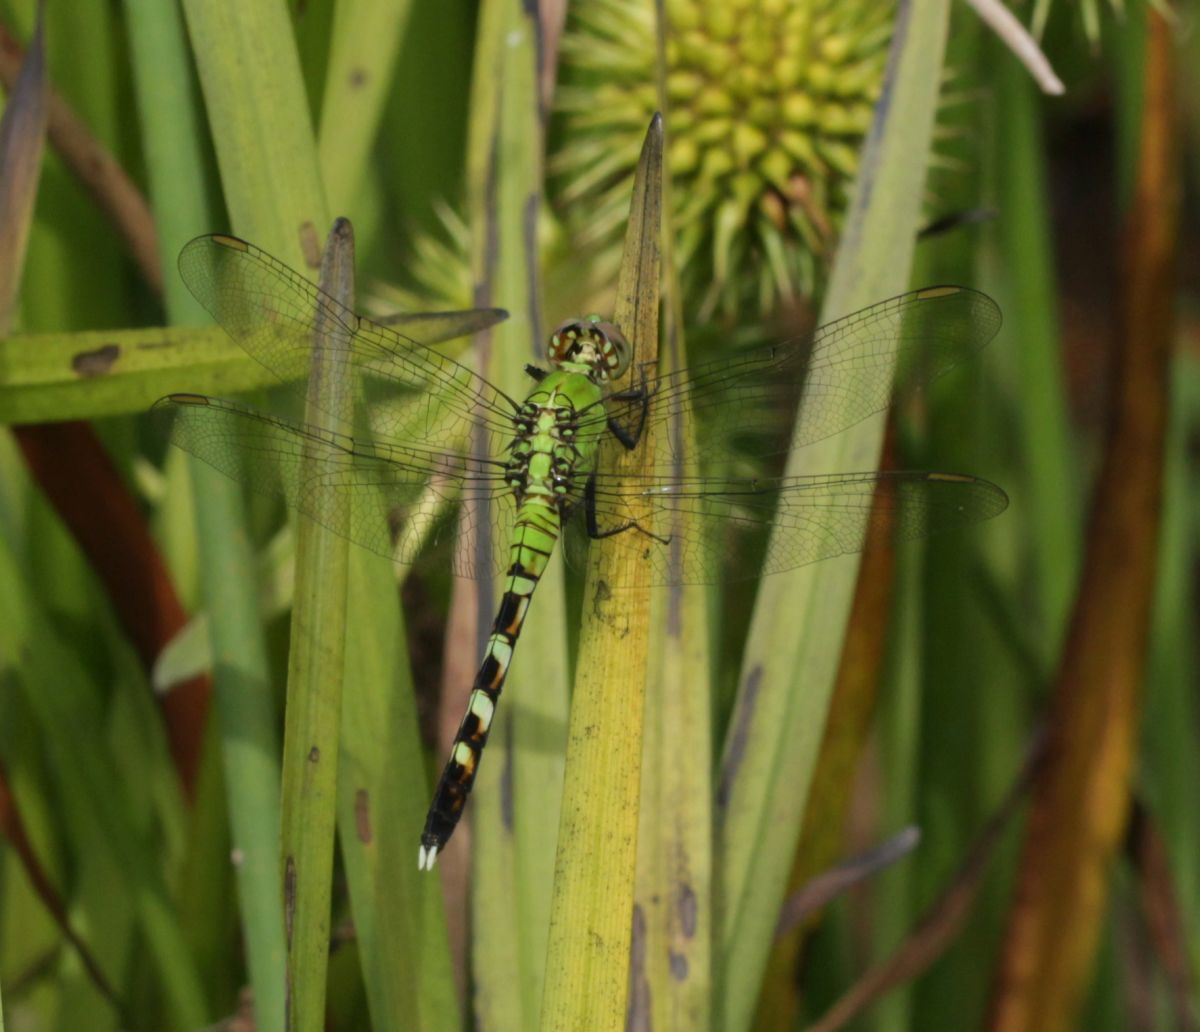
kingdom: Animalia
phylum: Arthropoda
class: Insecta
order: Odonata
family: Libellulidae
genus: Erythemis
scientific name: Erythemis simplicicollis
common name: Eastern pondhawk
